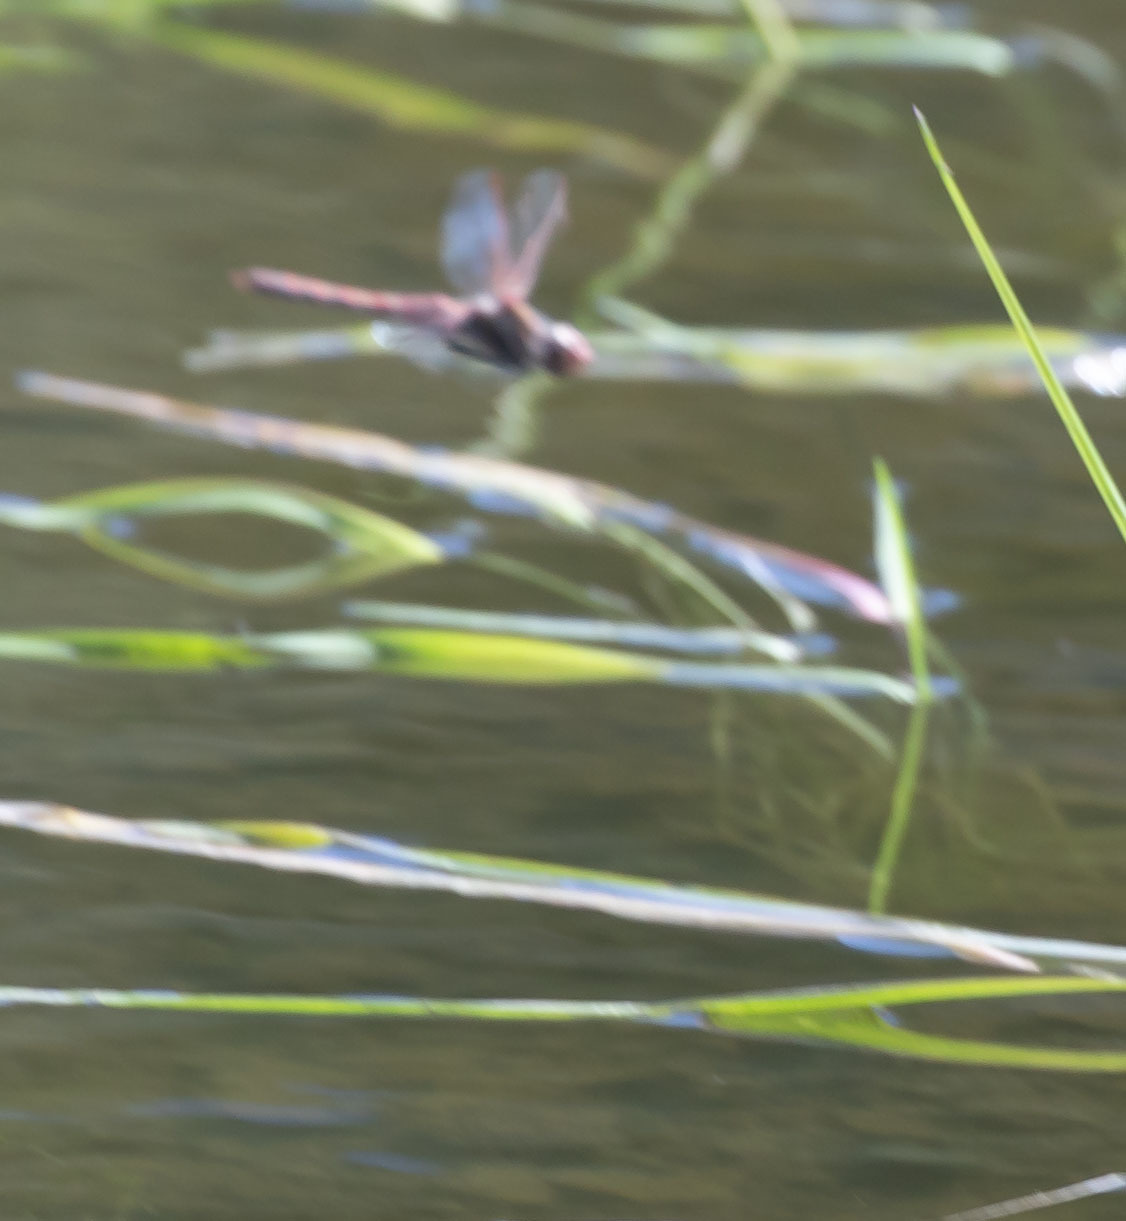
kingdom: Animalia
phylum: Arthropoda
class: Insecta
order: Odonata
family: Libellulidae
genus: Sympetrum
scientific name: Sympetrum corruptum
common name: Variegated meadowhawk
